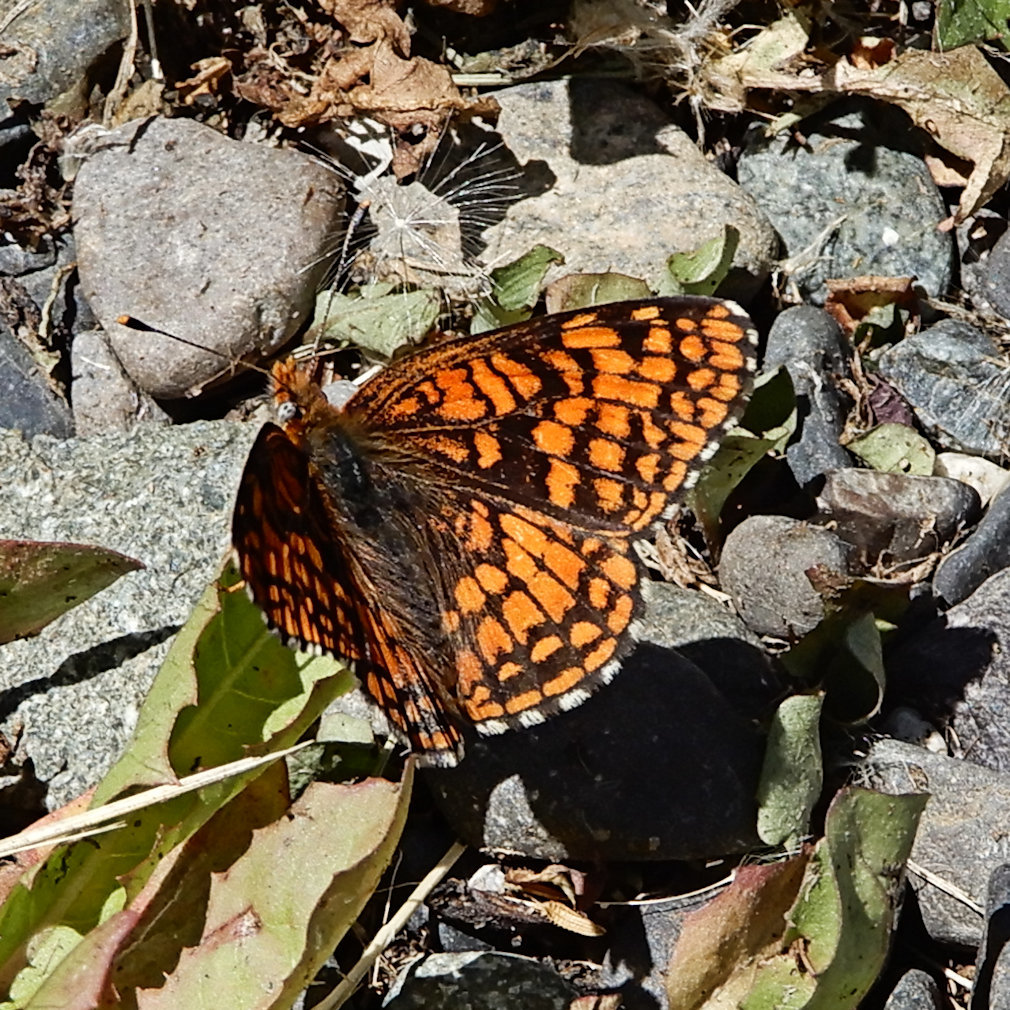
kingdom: Animalia
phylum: Arthropoda
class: Insecta
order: Lepidoptera
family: Nymphalidae
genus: Chlosyne
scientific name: Chlosyne palla
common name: Northern checkerspot
